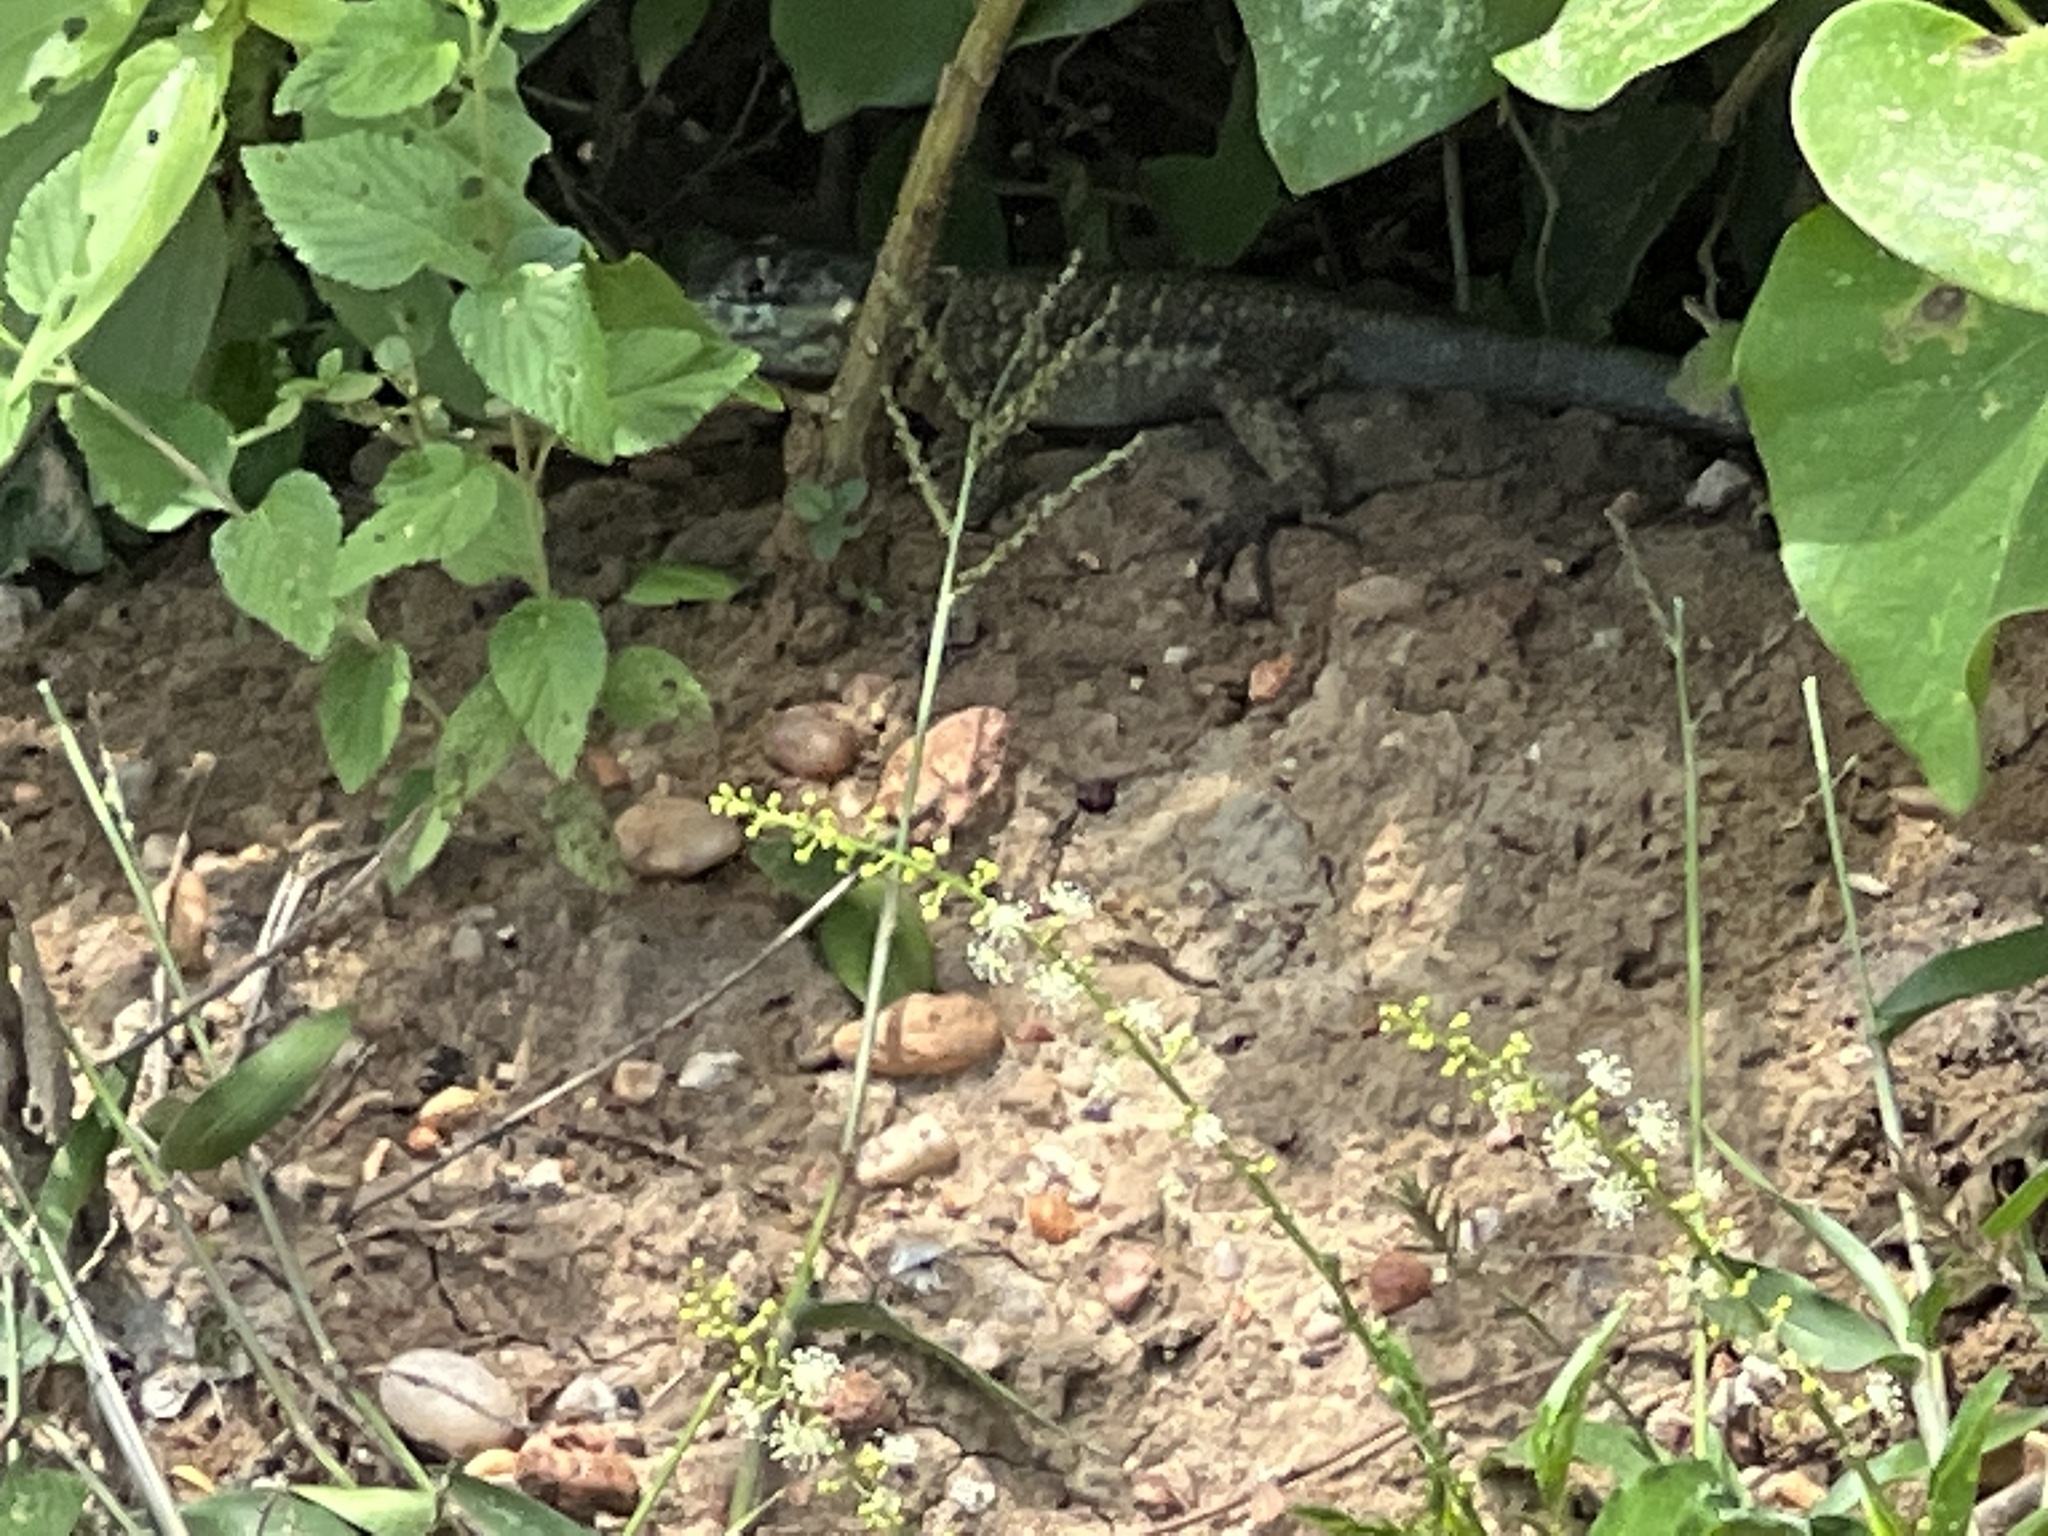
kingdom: Animalia
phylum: Chordata
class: Squamata
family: Tropiduridae
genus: Tropidurus
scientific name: Tropidurus catalanensis
